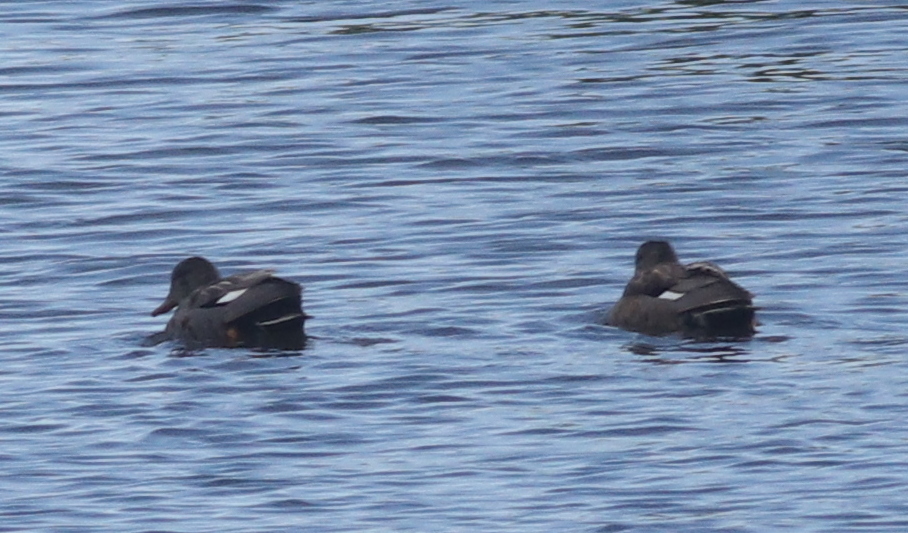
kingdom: Animalia
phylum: Chordata
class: Aves
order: Anseriformes
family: Anatidae
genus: Mareca
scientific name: Mareca strepera
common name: Gadwall
